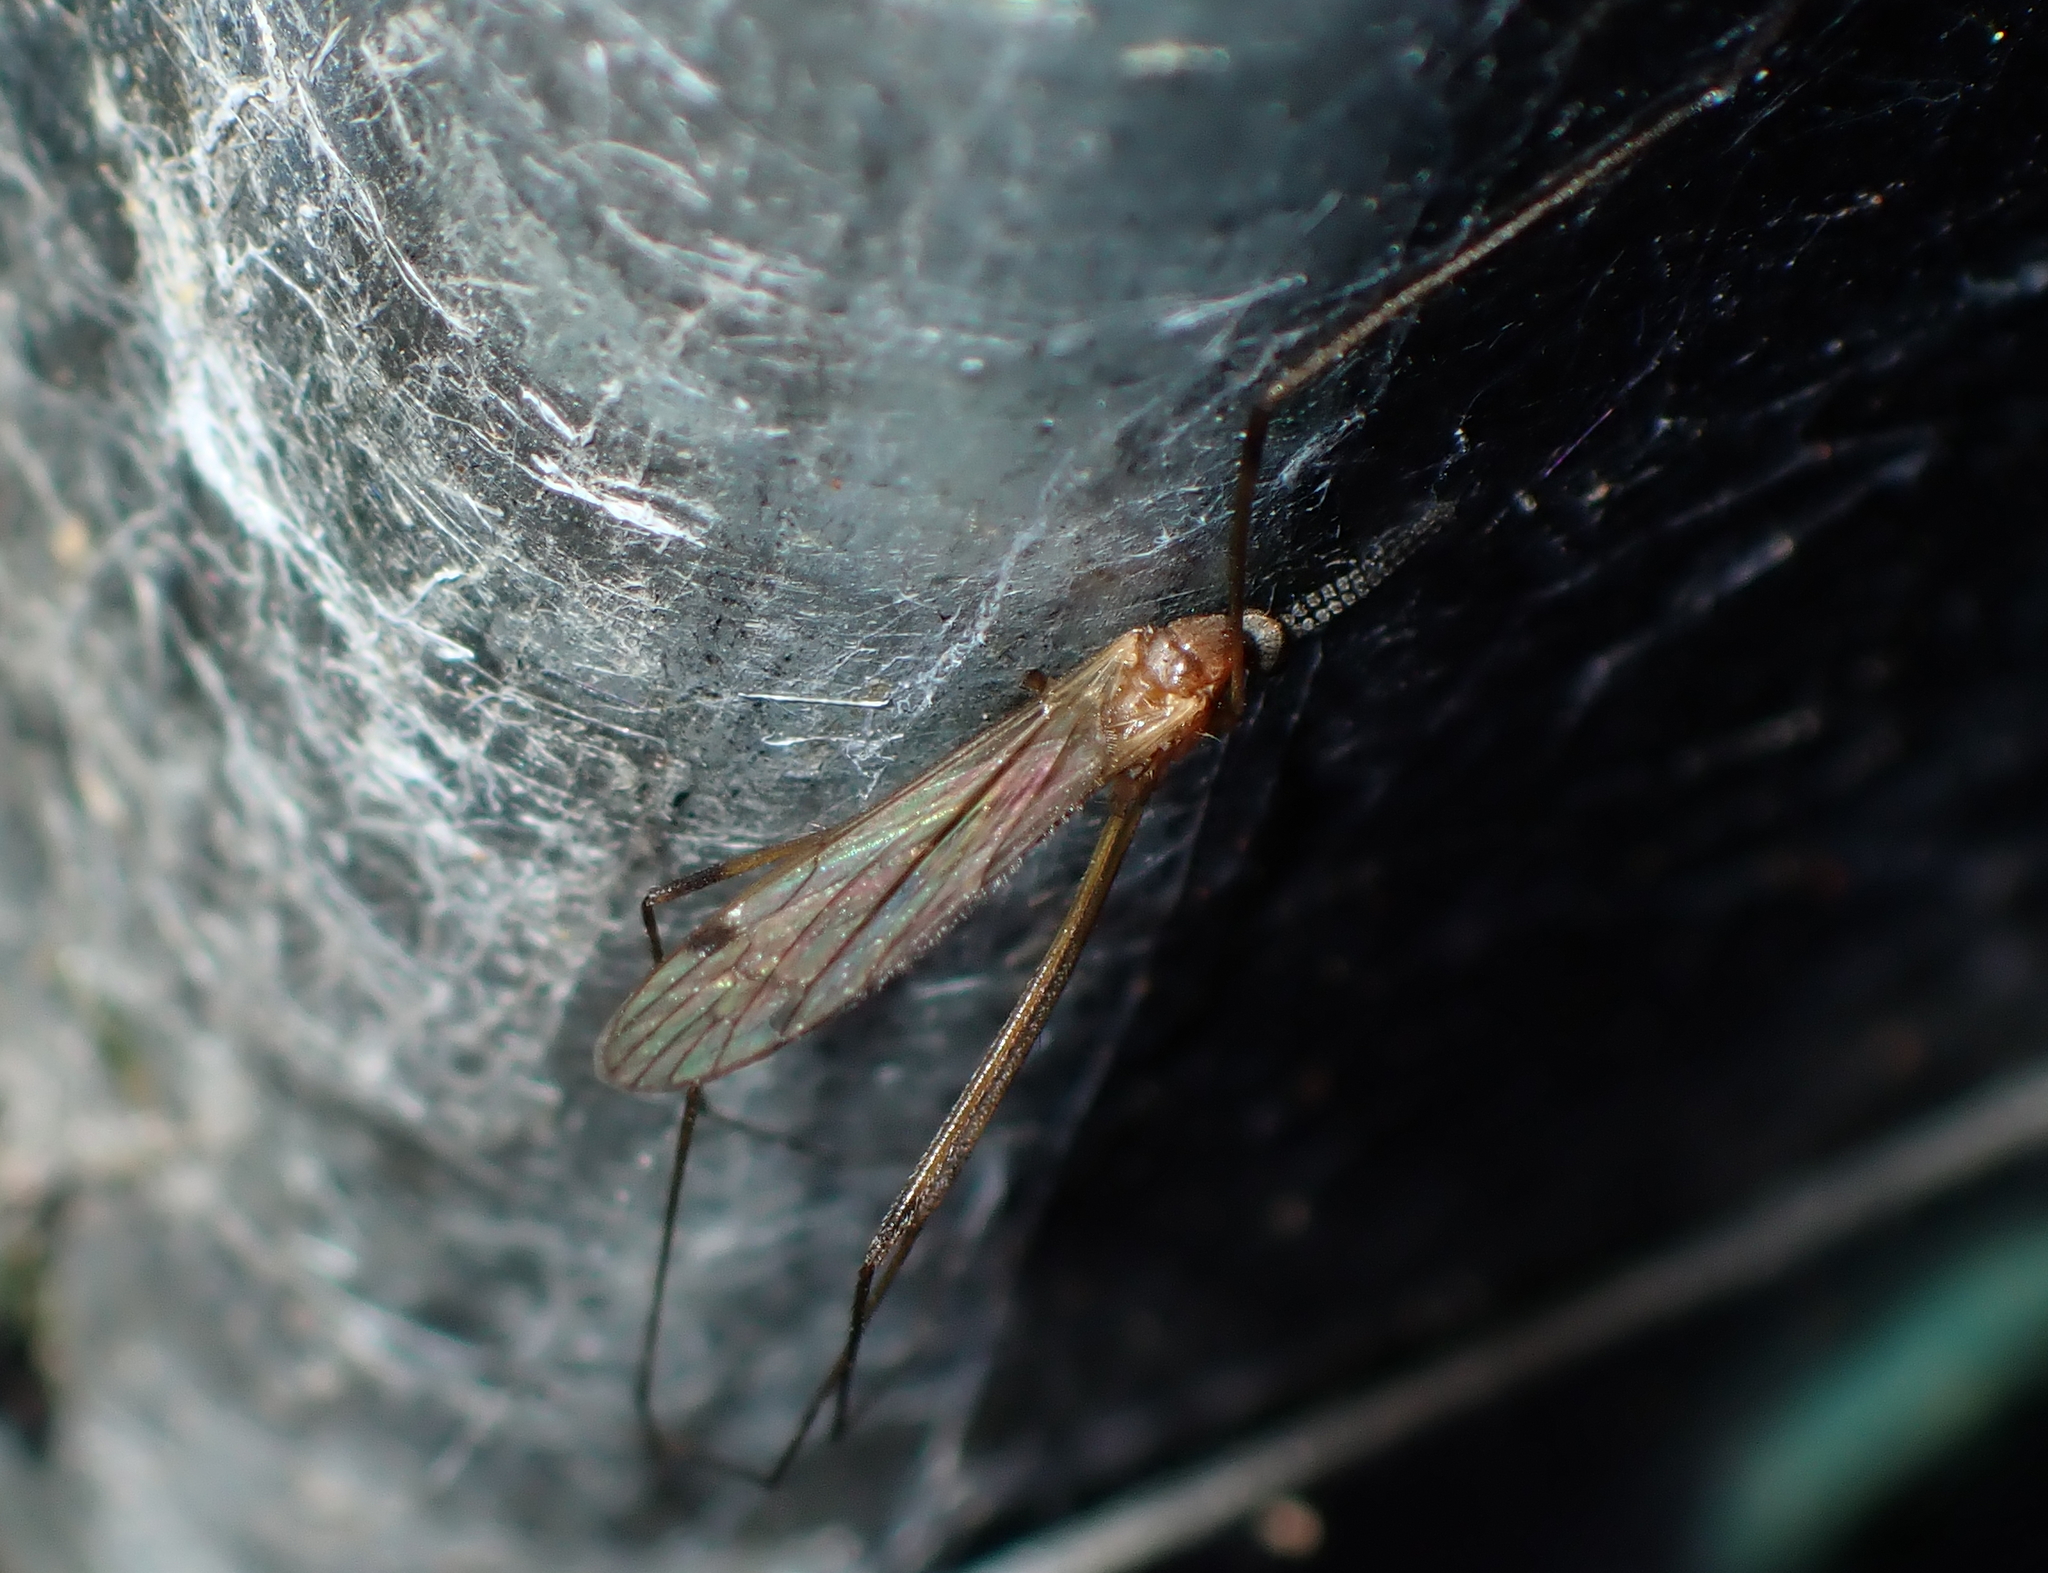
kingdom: Animalia
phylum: Arthropoda
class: Insecta
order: Diptera
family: Limoniidae
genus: Dicranomyia
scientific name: Dicranomyia
